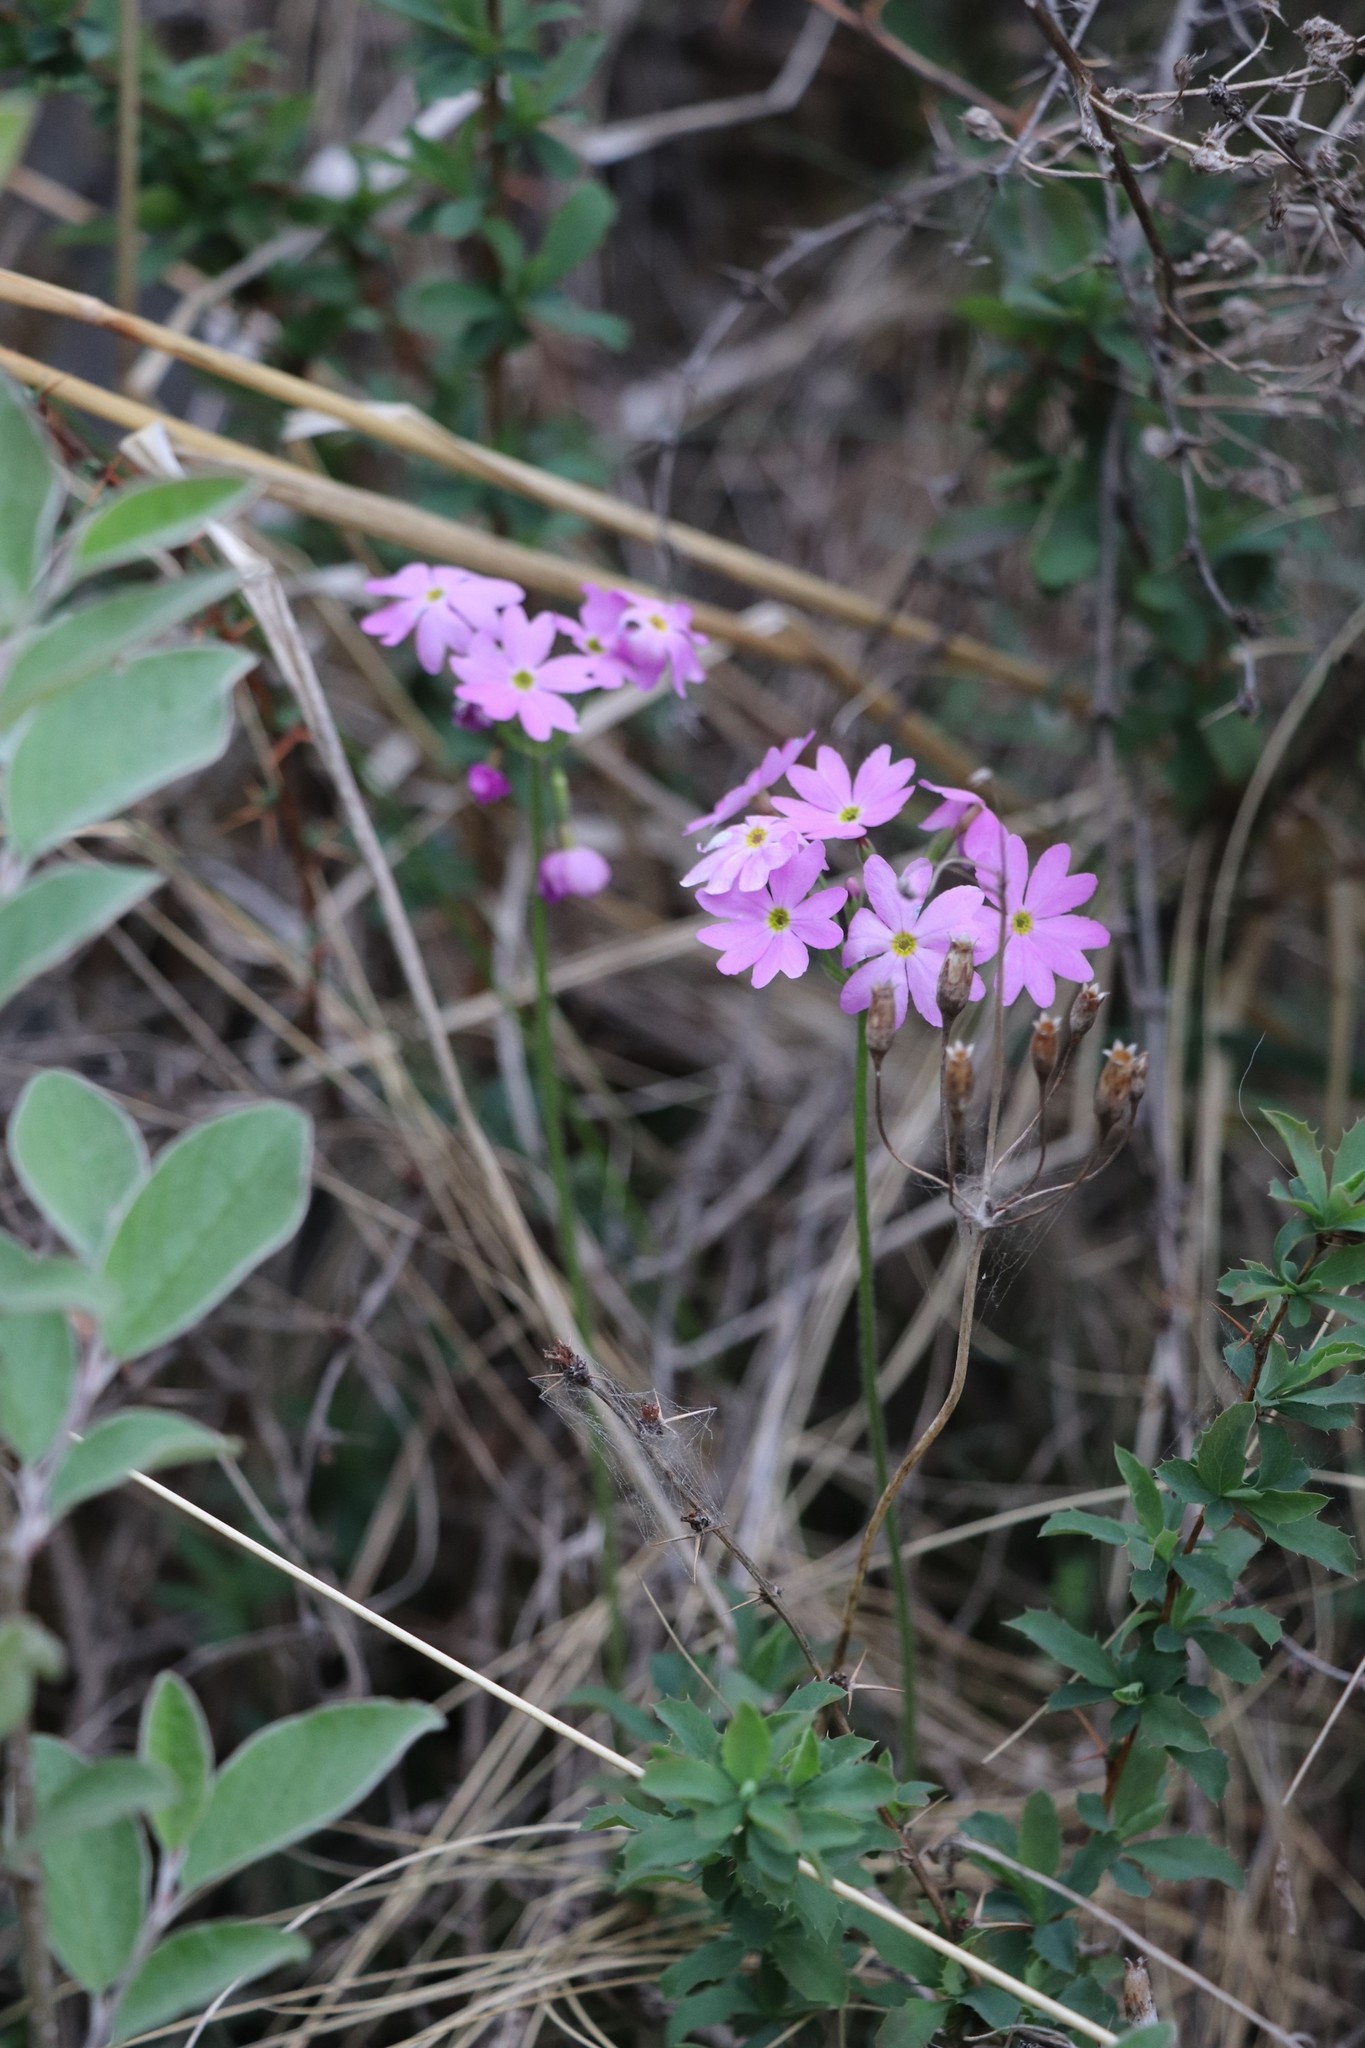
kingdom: Plantae
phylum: Tracheophyta
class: Magnoliopsida
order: Ericales
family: Primulaceae
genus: Primula
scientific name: Primula cortusoides
